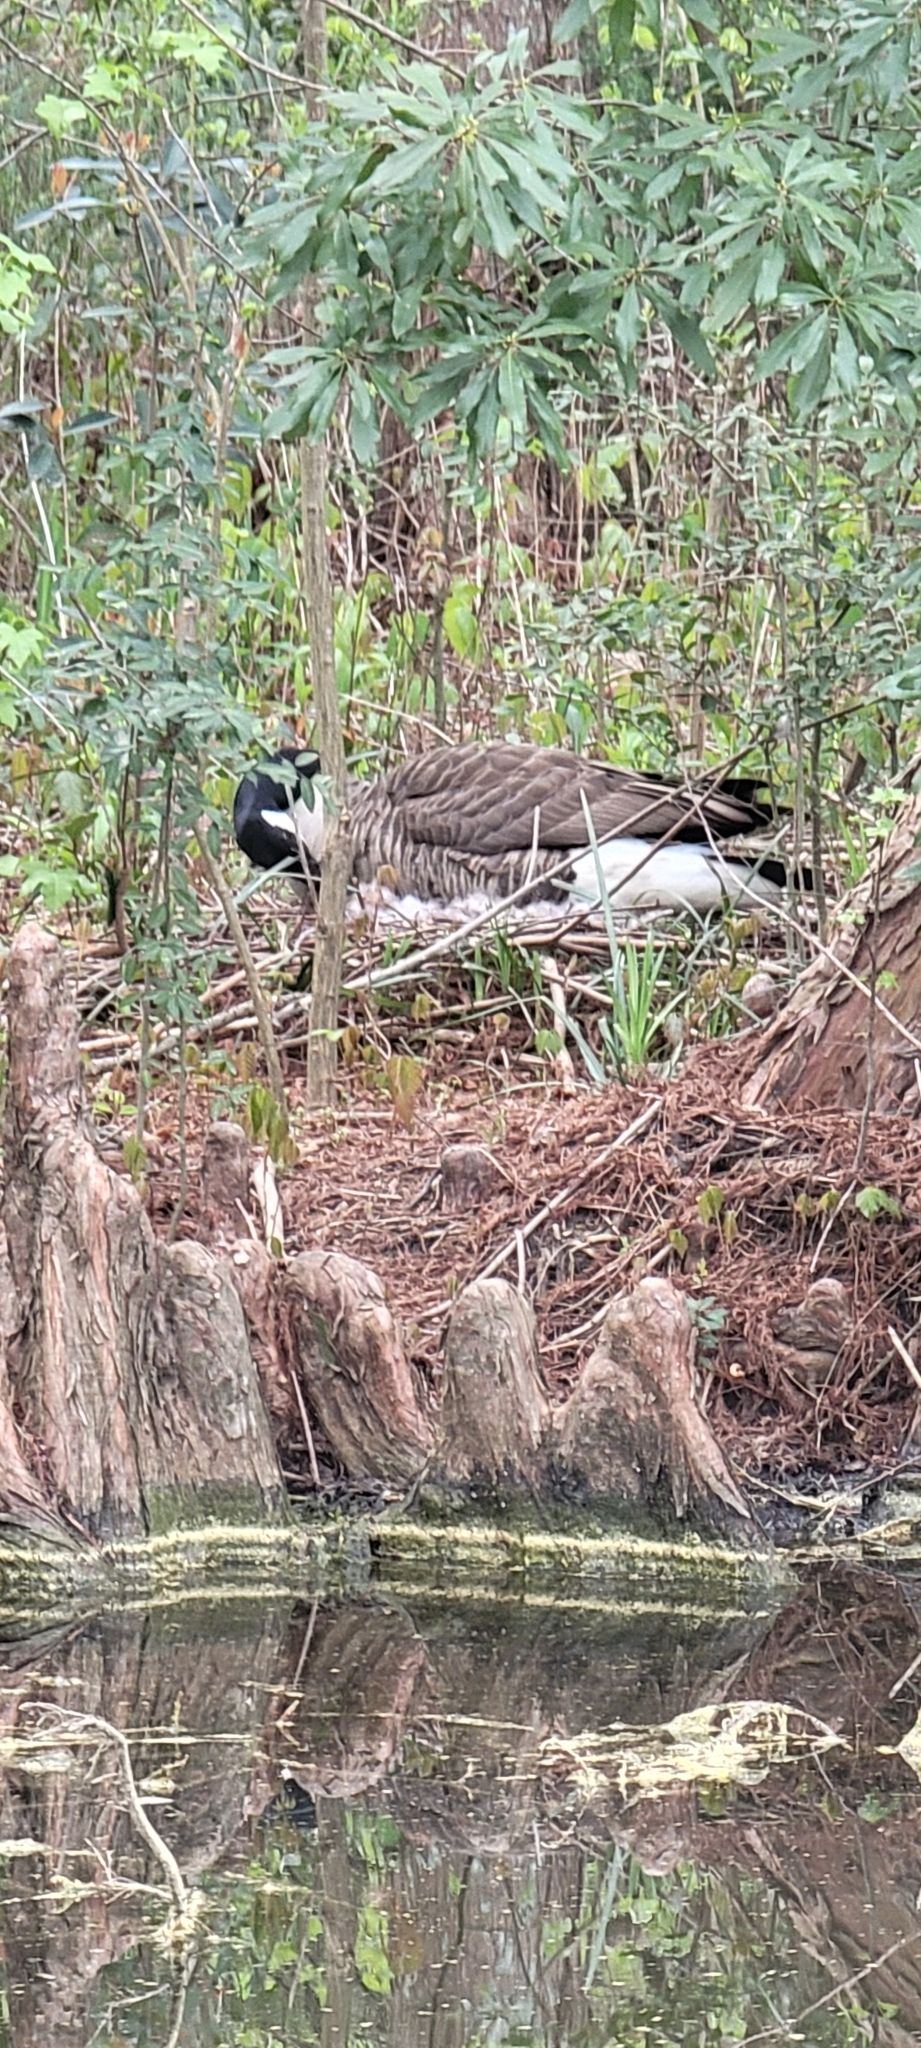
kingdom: Animalia
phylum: Chordata
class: Aves
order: Anseriformes
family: Anatidae
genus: Branta
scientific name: Branta canadensis
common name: Canada goose
